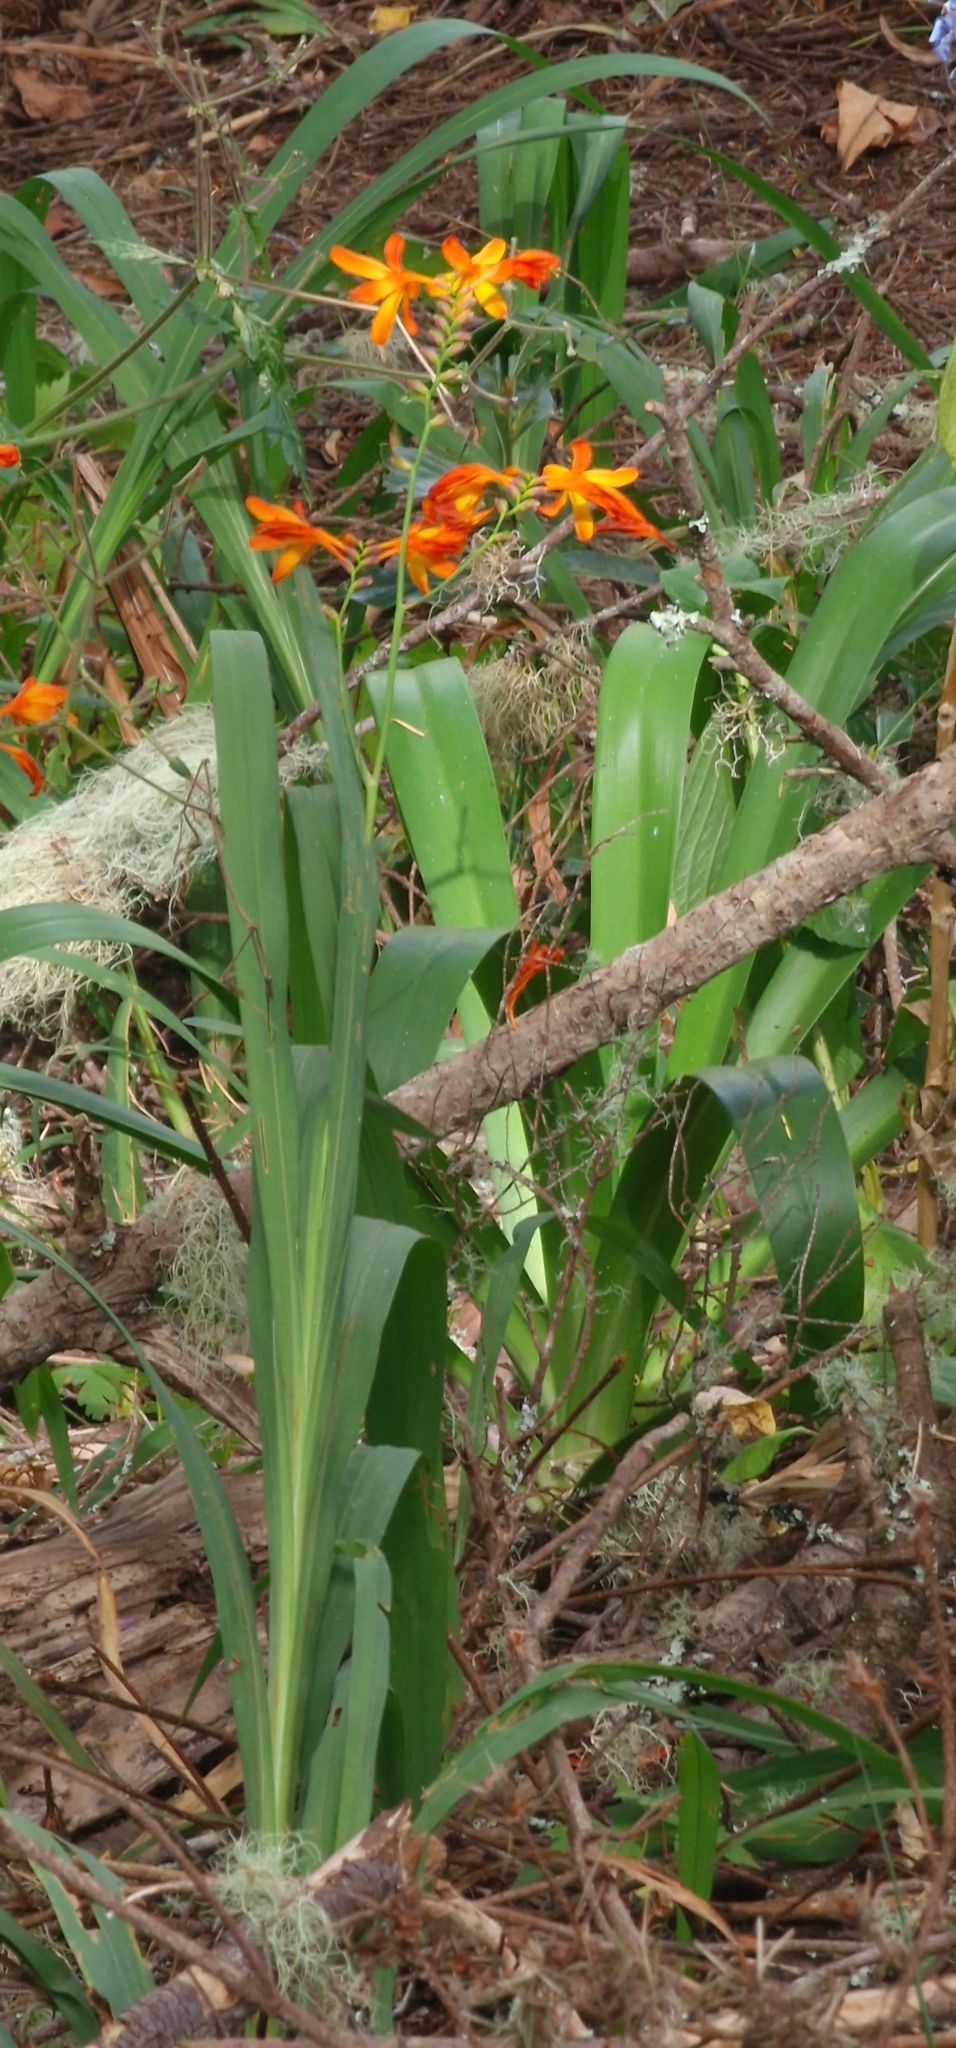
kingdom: Plantae
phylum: Tracheophyta
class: Liliopsida
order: Asparagales
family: Iridaceae
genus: Crocosmia
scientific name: Crocosmia crocosmiiflora
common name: Montbretia
